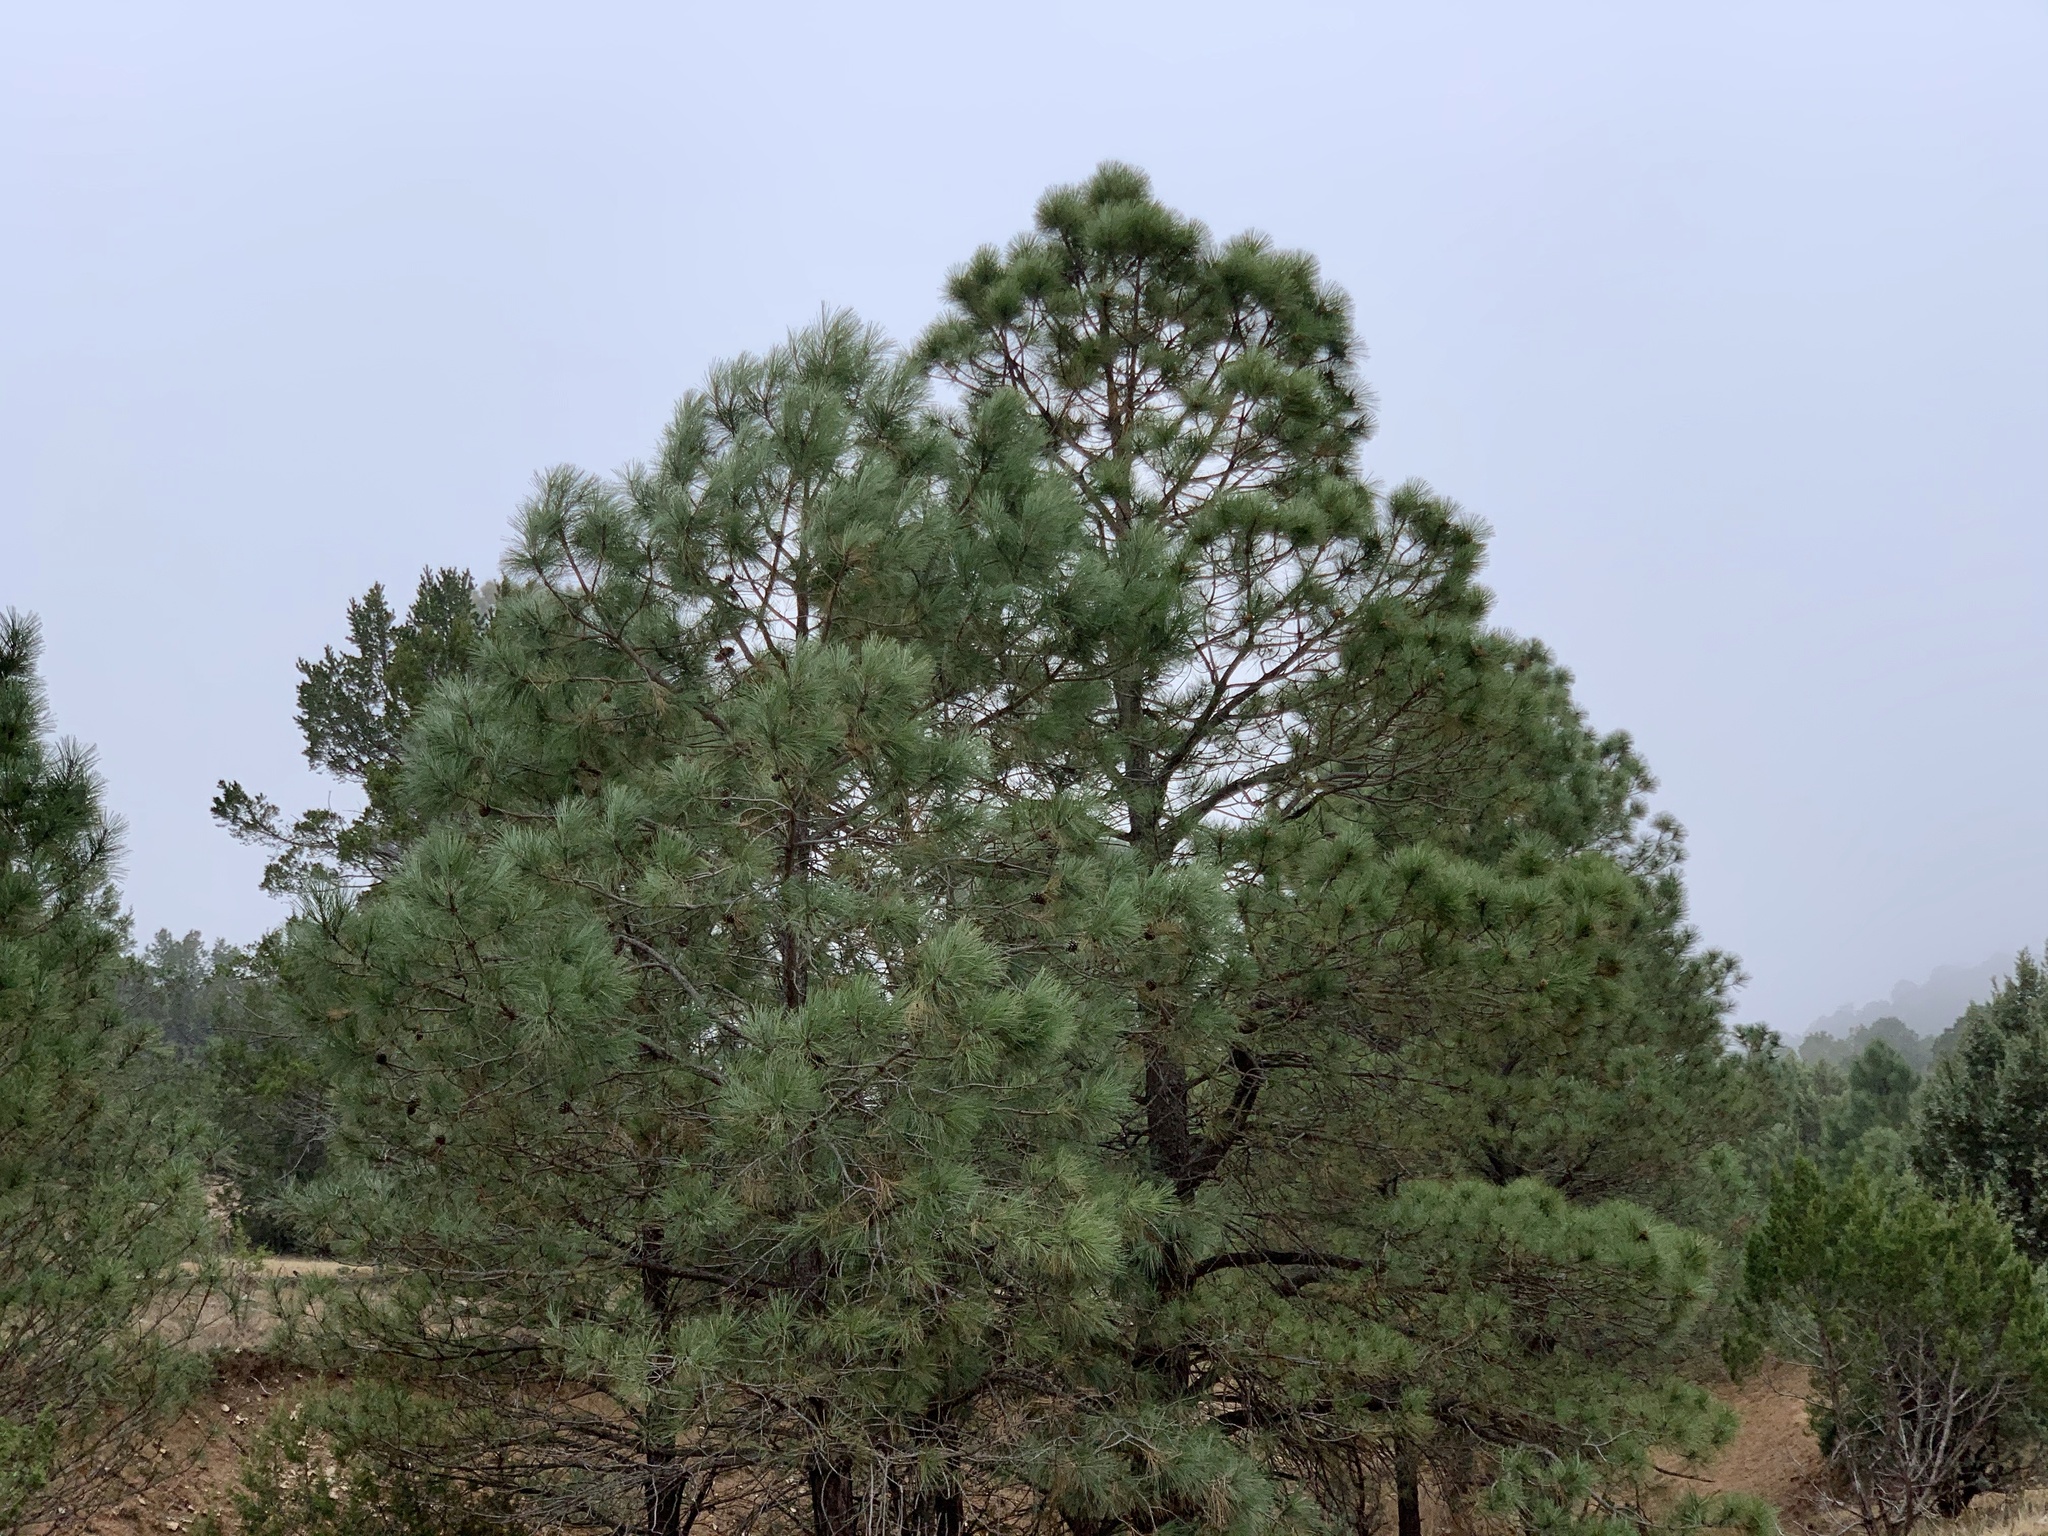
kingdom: Plantae
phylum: Tracheophyta
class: Pinopsida
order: Pinales
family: Pinaceae
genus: Pinus
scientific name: Pinus ponderosa
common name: Western yellow-pine
